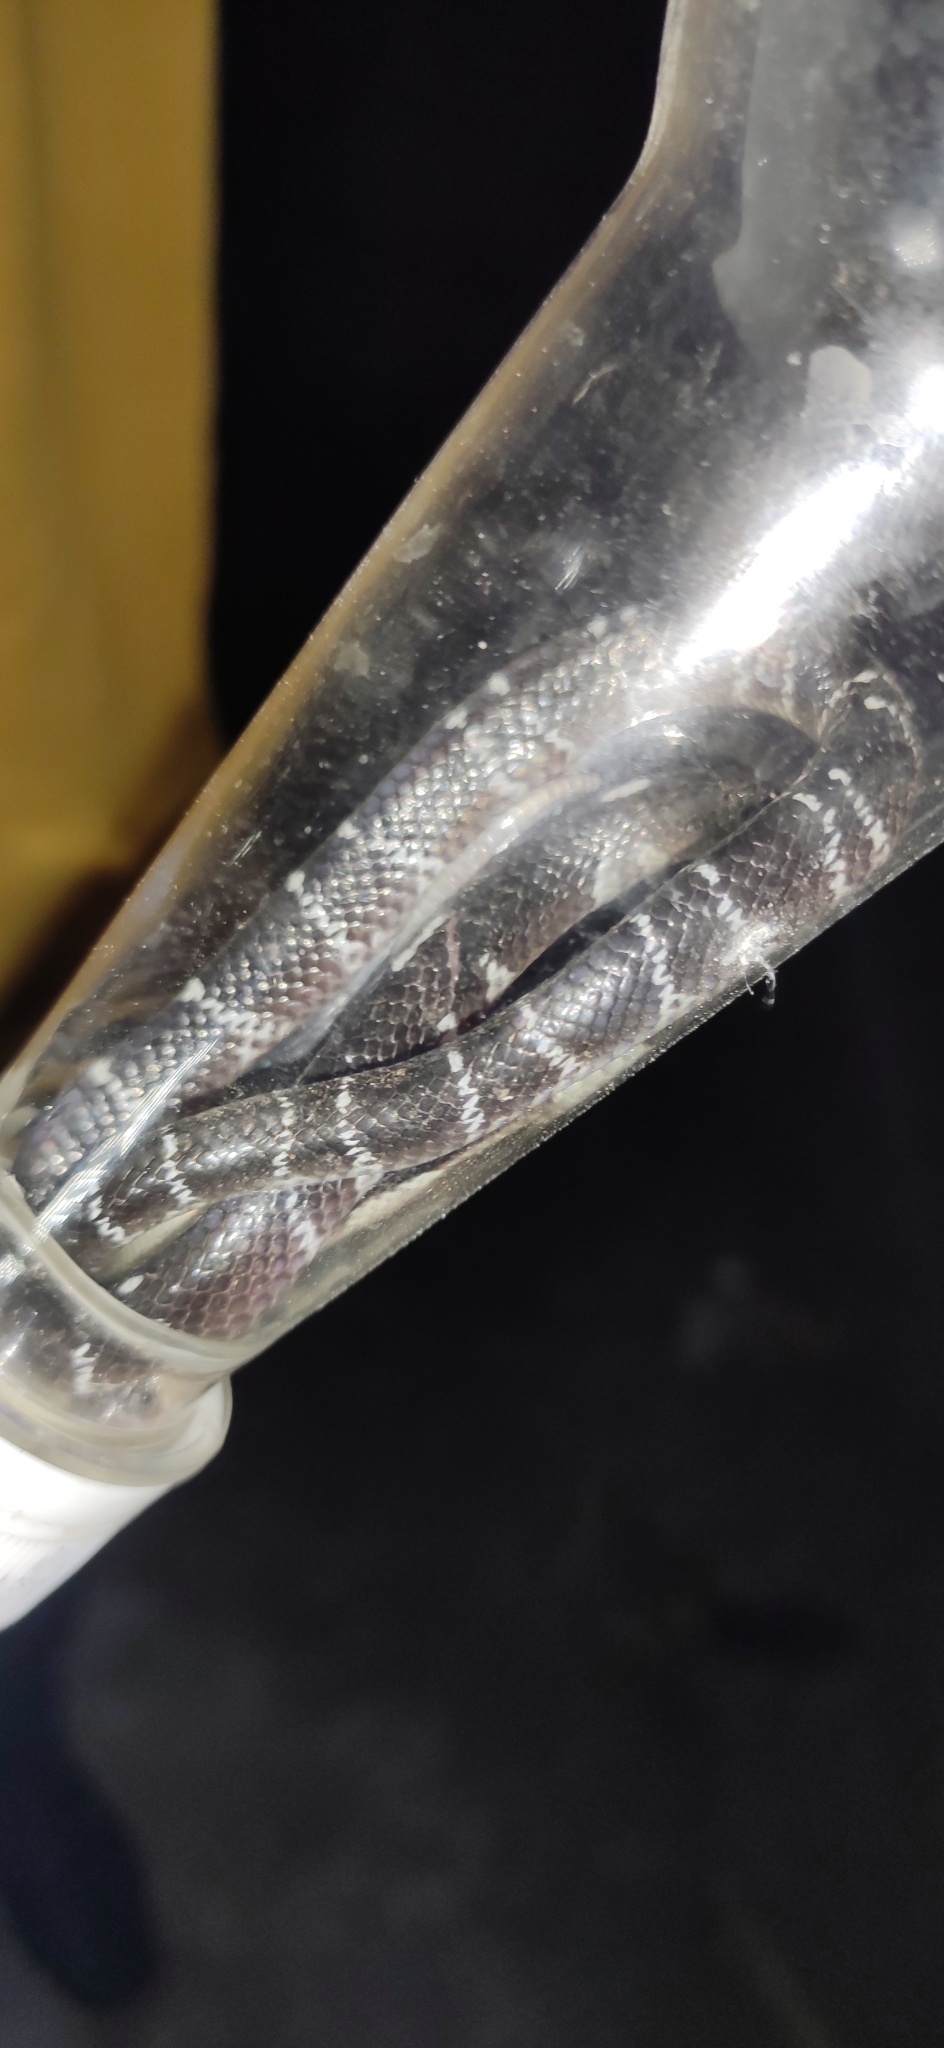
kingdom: Animalia
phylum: Chordata
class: Squamata
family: Elapidae
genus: Bungarus
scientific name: Bungarus caeruleus
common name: Common krait
